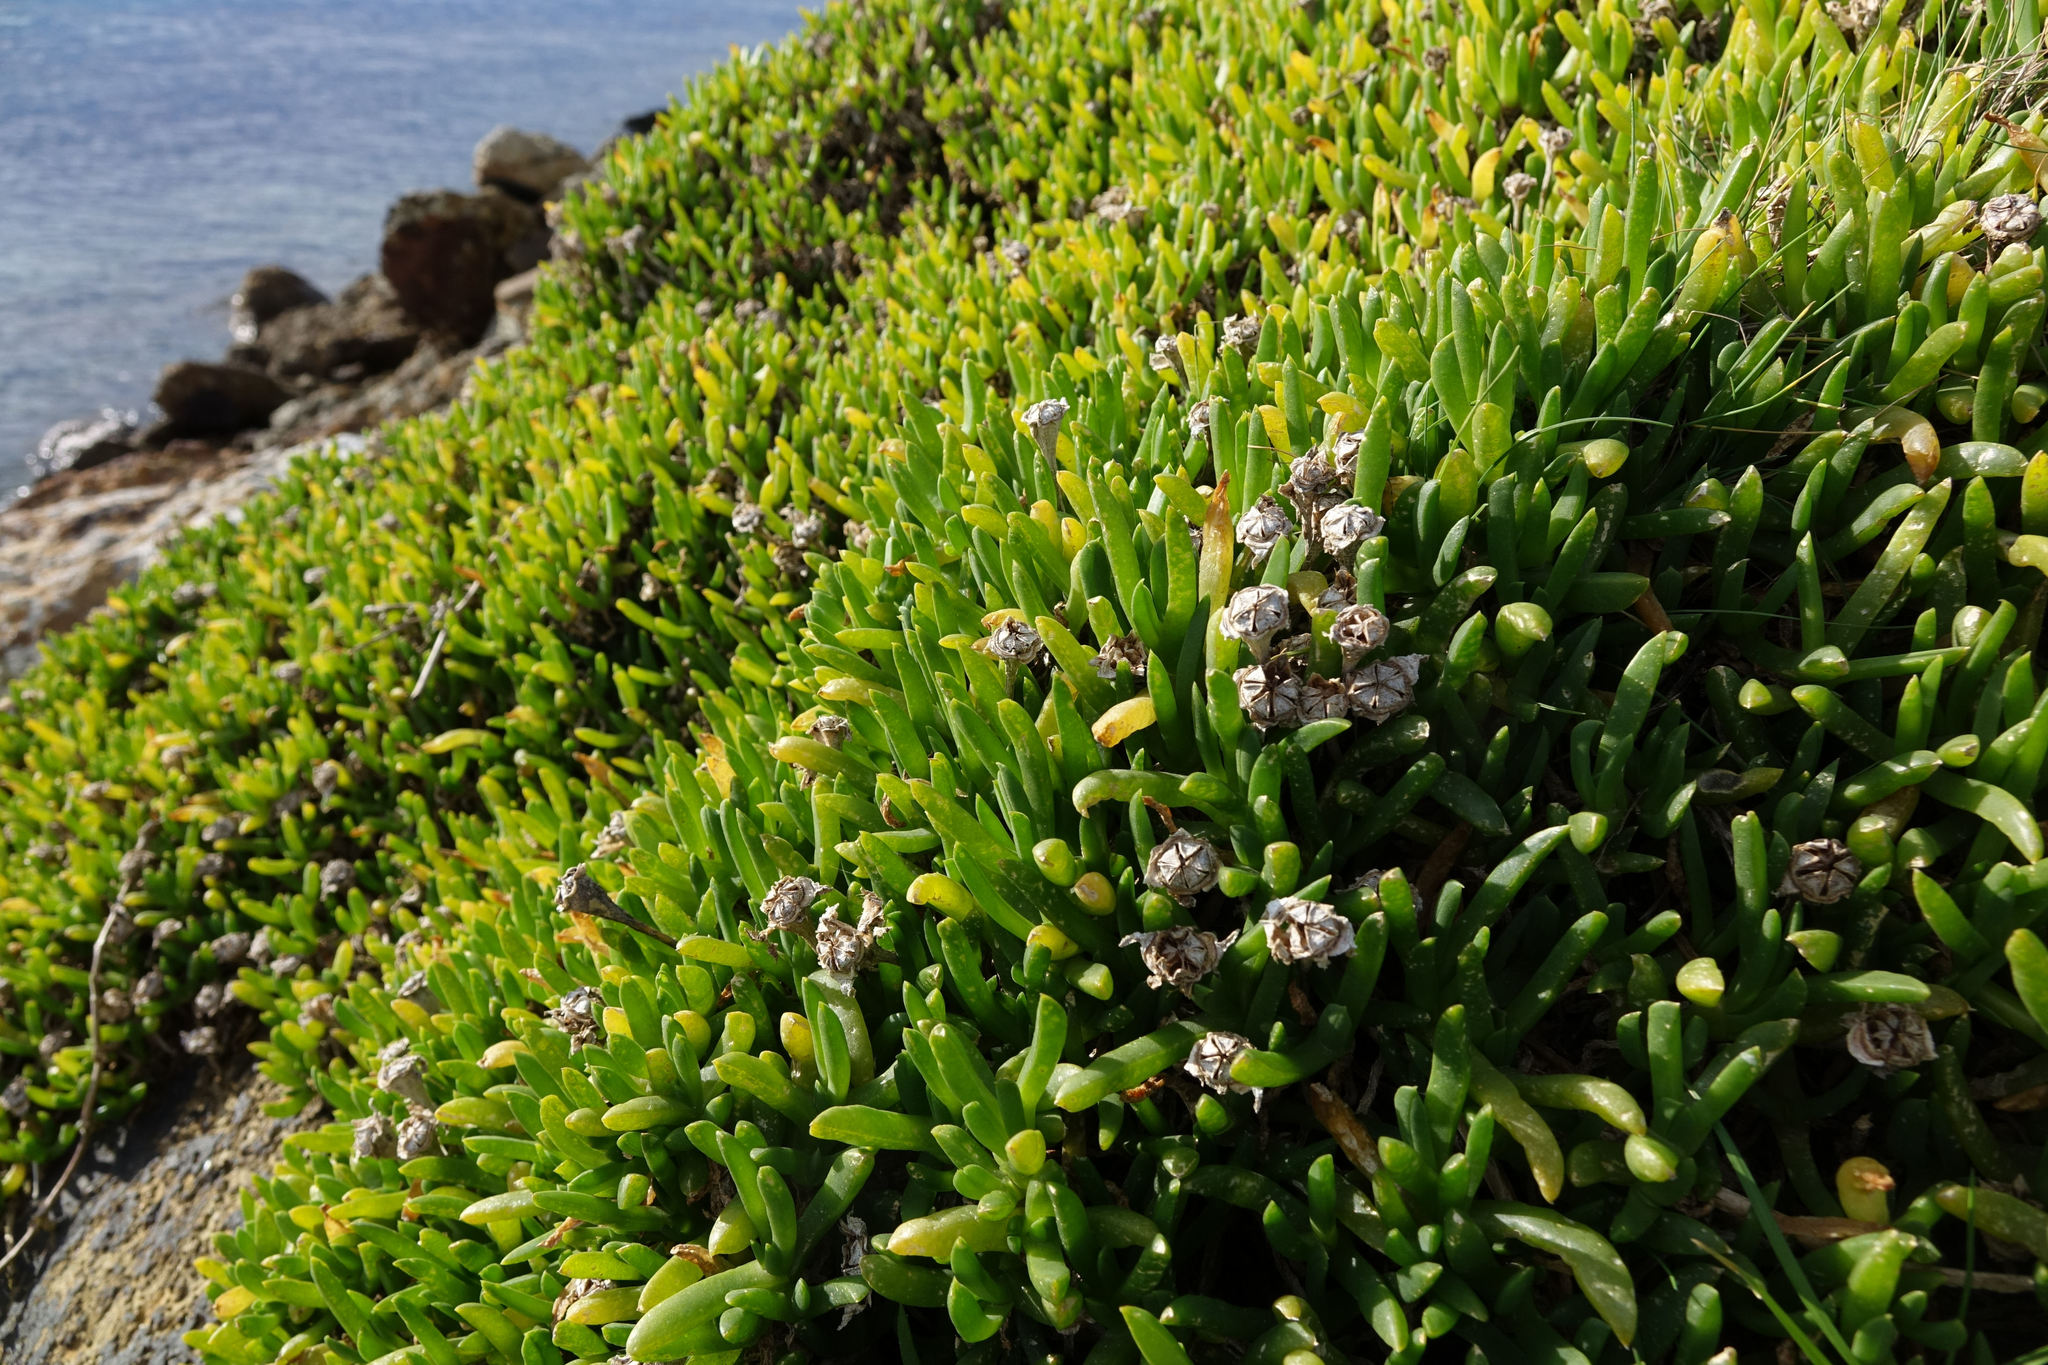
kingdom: Plantae
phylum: Tracheophyta
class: Magnoliopsida
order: Caryophyllales
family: Aizoaceae
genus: Disphyma
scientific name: Disphyma australe
